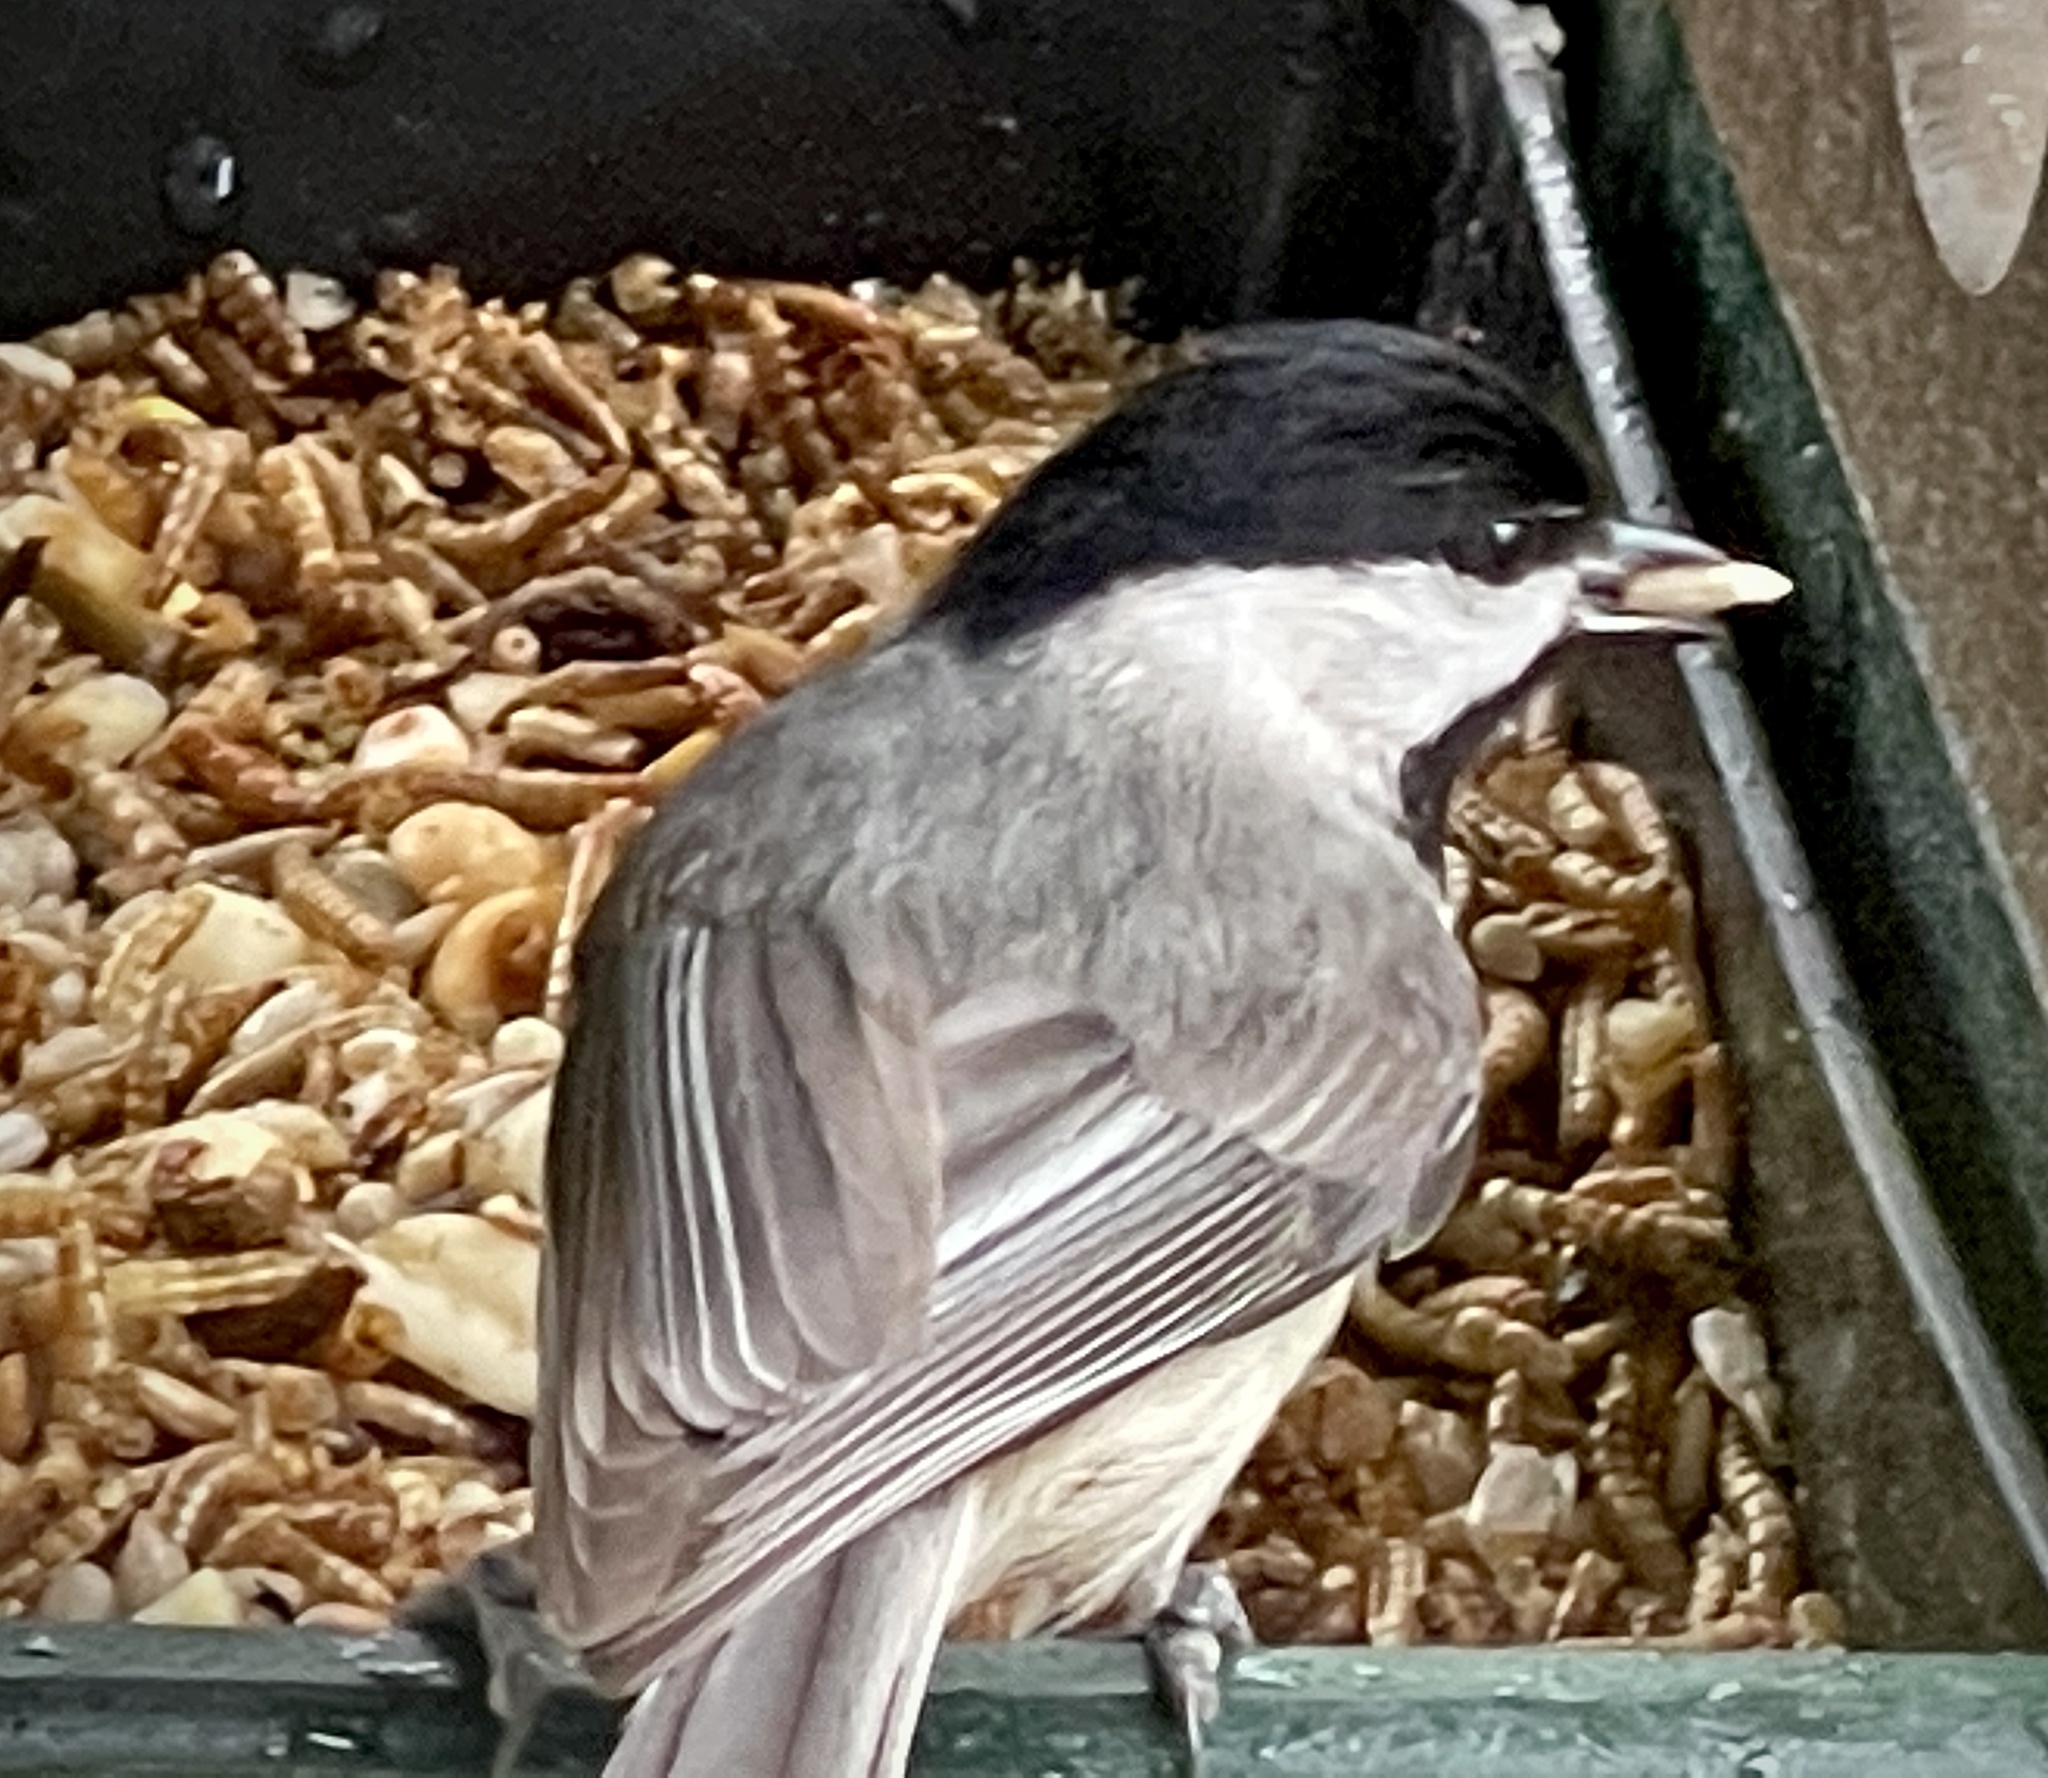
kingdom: Animalia
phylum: Chordata
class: Aves
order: Passeriformes
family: Paridae
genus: Poecile
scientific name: Poecile carolinensis
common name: Carolina chickadee
